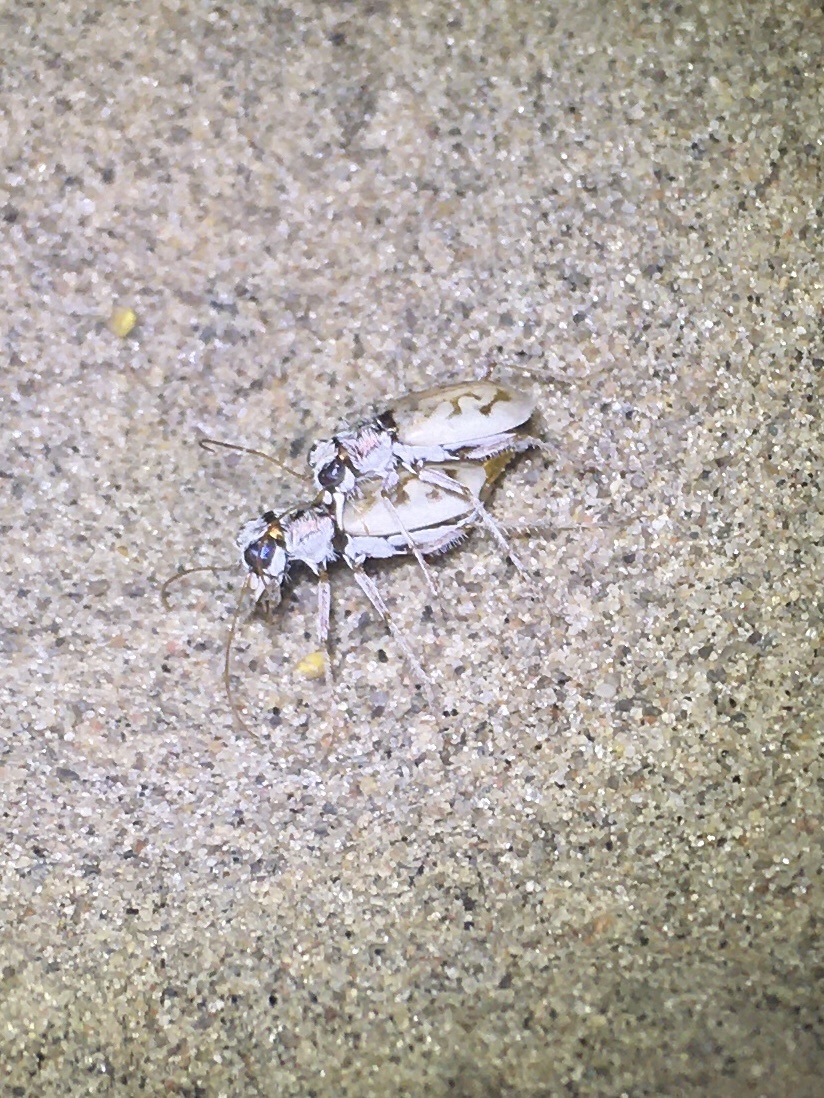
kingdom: Animalia
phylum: Arthropoda
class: Insecta
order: Coleoptera
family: Carabidae
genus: Ellipsoptera
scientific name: Ellipsoptera lepida
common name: Ghost tiger beetle
